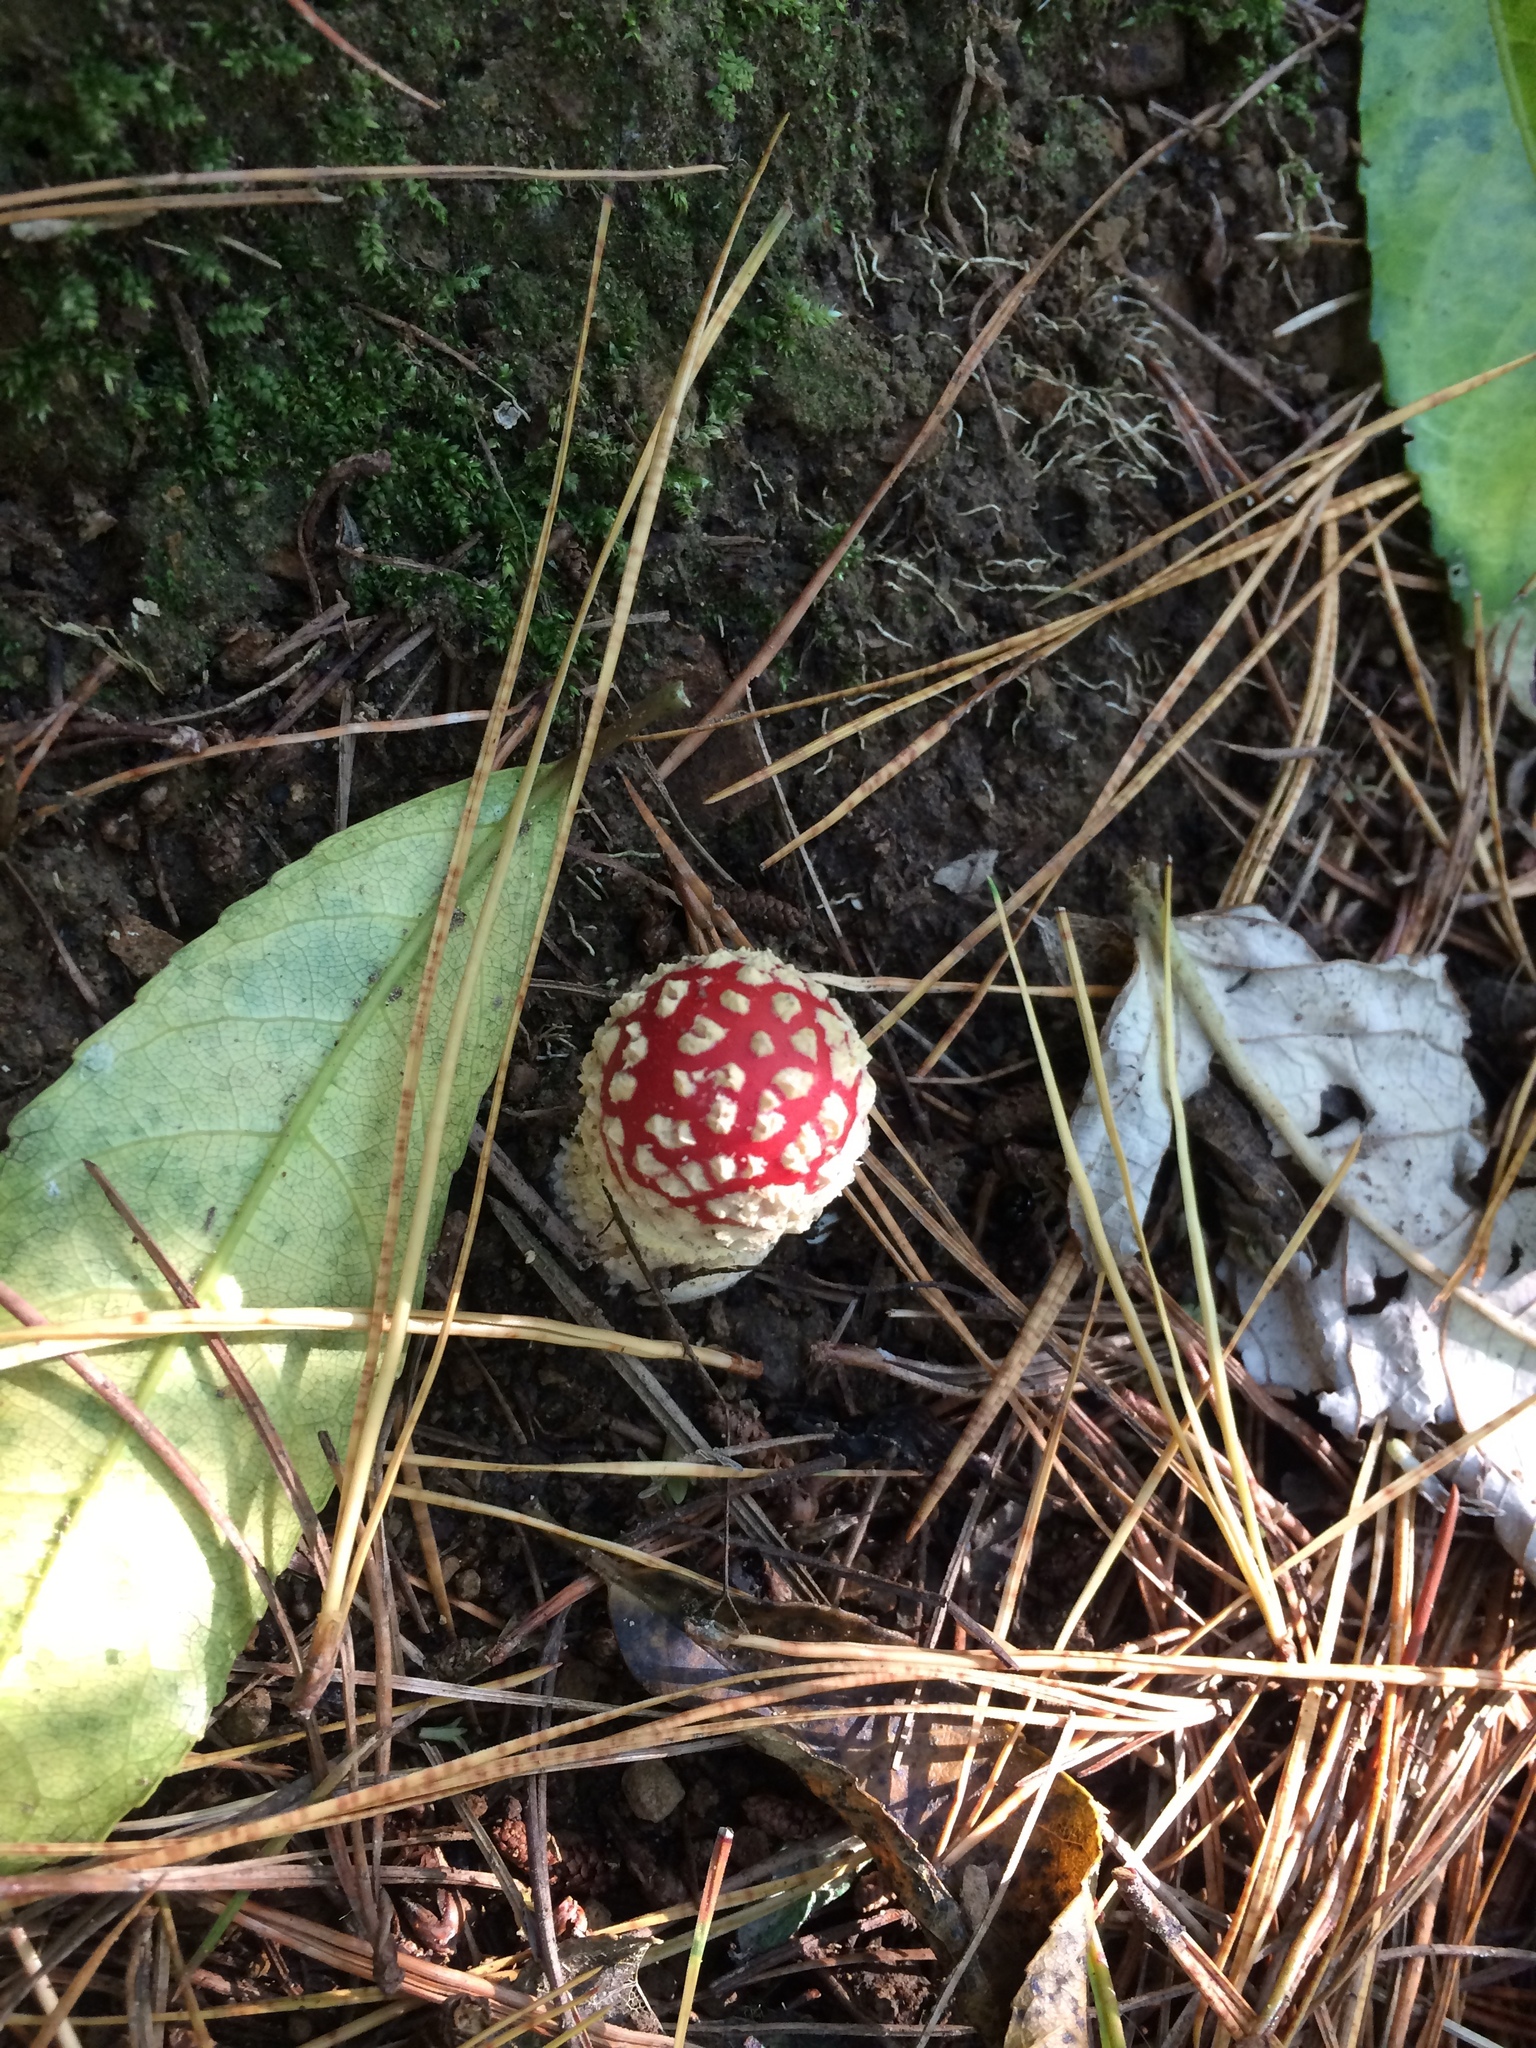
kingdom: Fungi
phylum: Basidiomycota
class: Agaricomycetes
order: Agaricales
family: Amanitaceae
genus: Amanita
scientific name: Amanita muscaria
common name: Fly agaric
